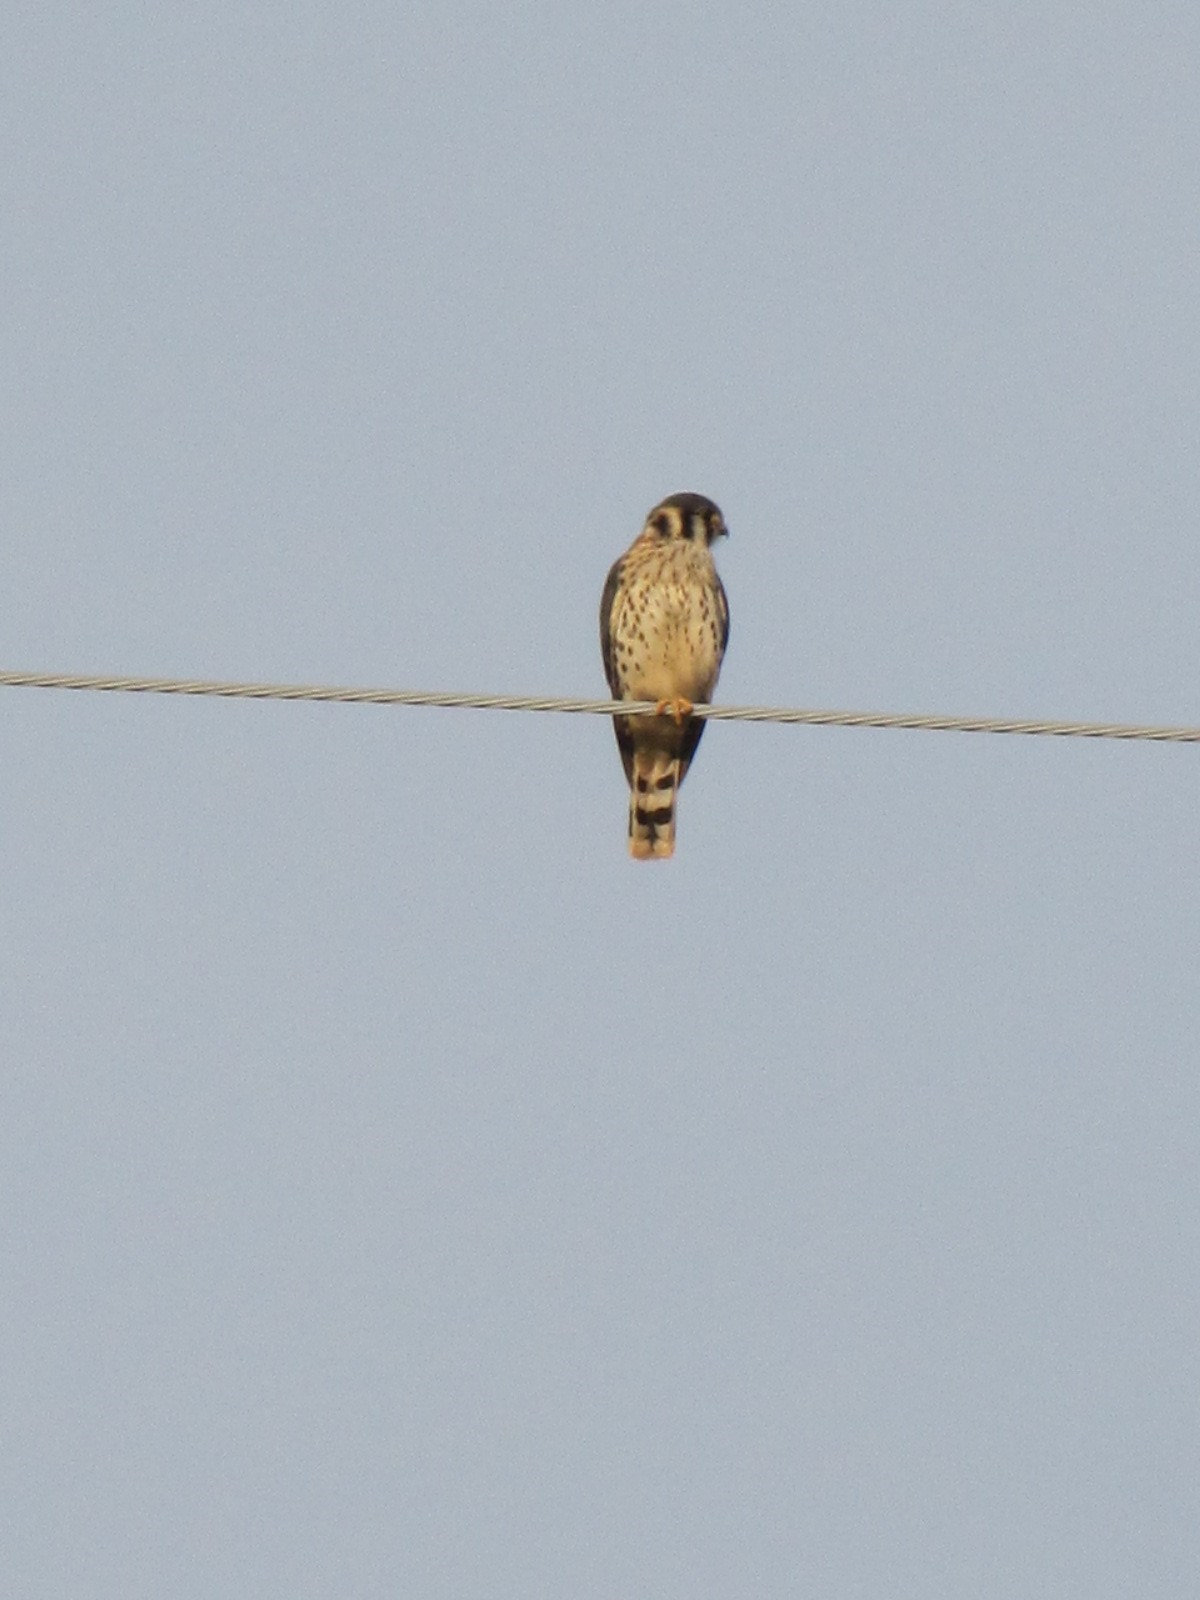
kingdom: Animalia
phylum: Chordata
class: Aves
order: Falconiformes
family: Falconidae
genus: Falco
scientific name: Falco sparverius
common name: American kestrel
